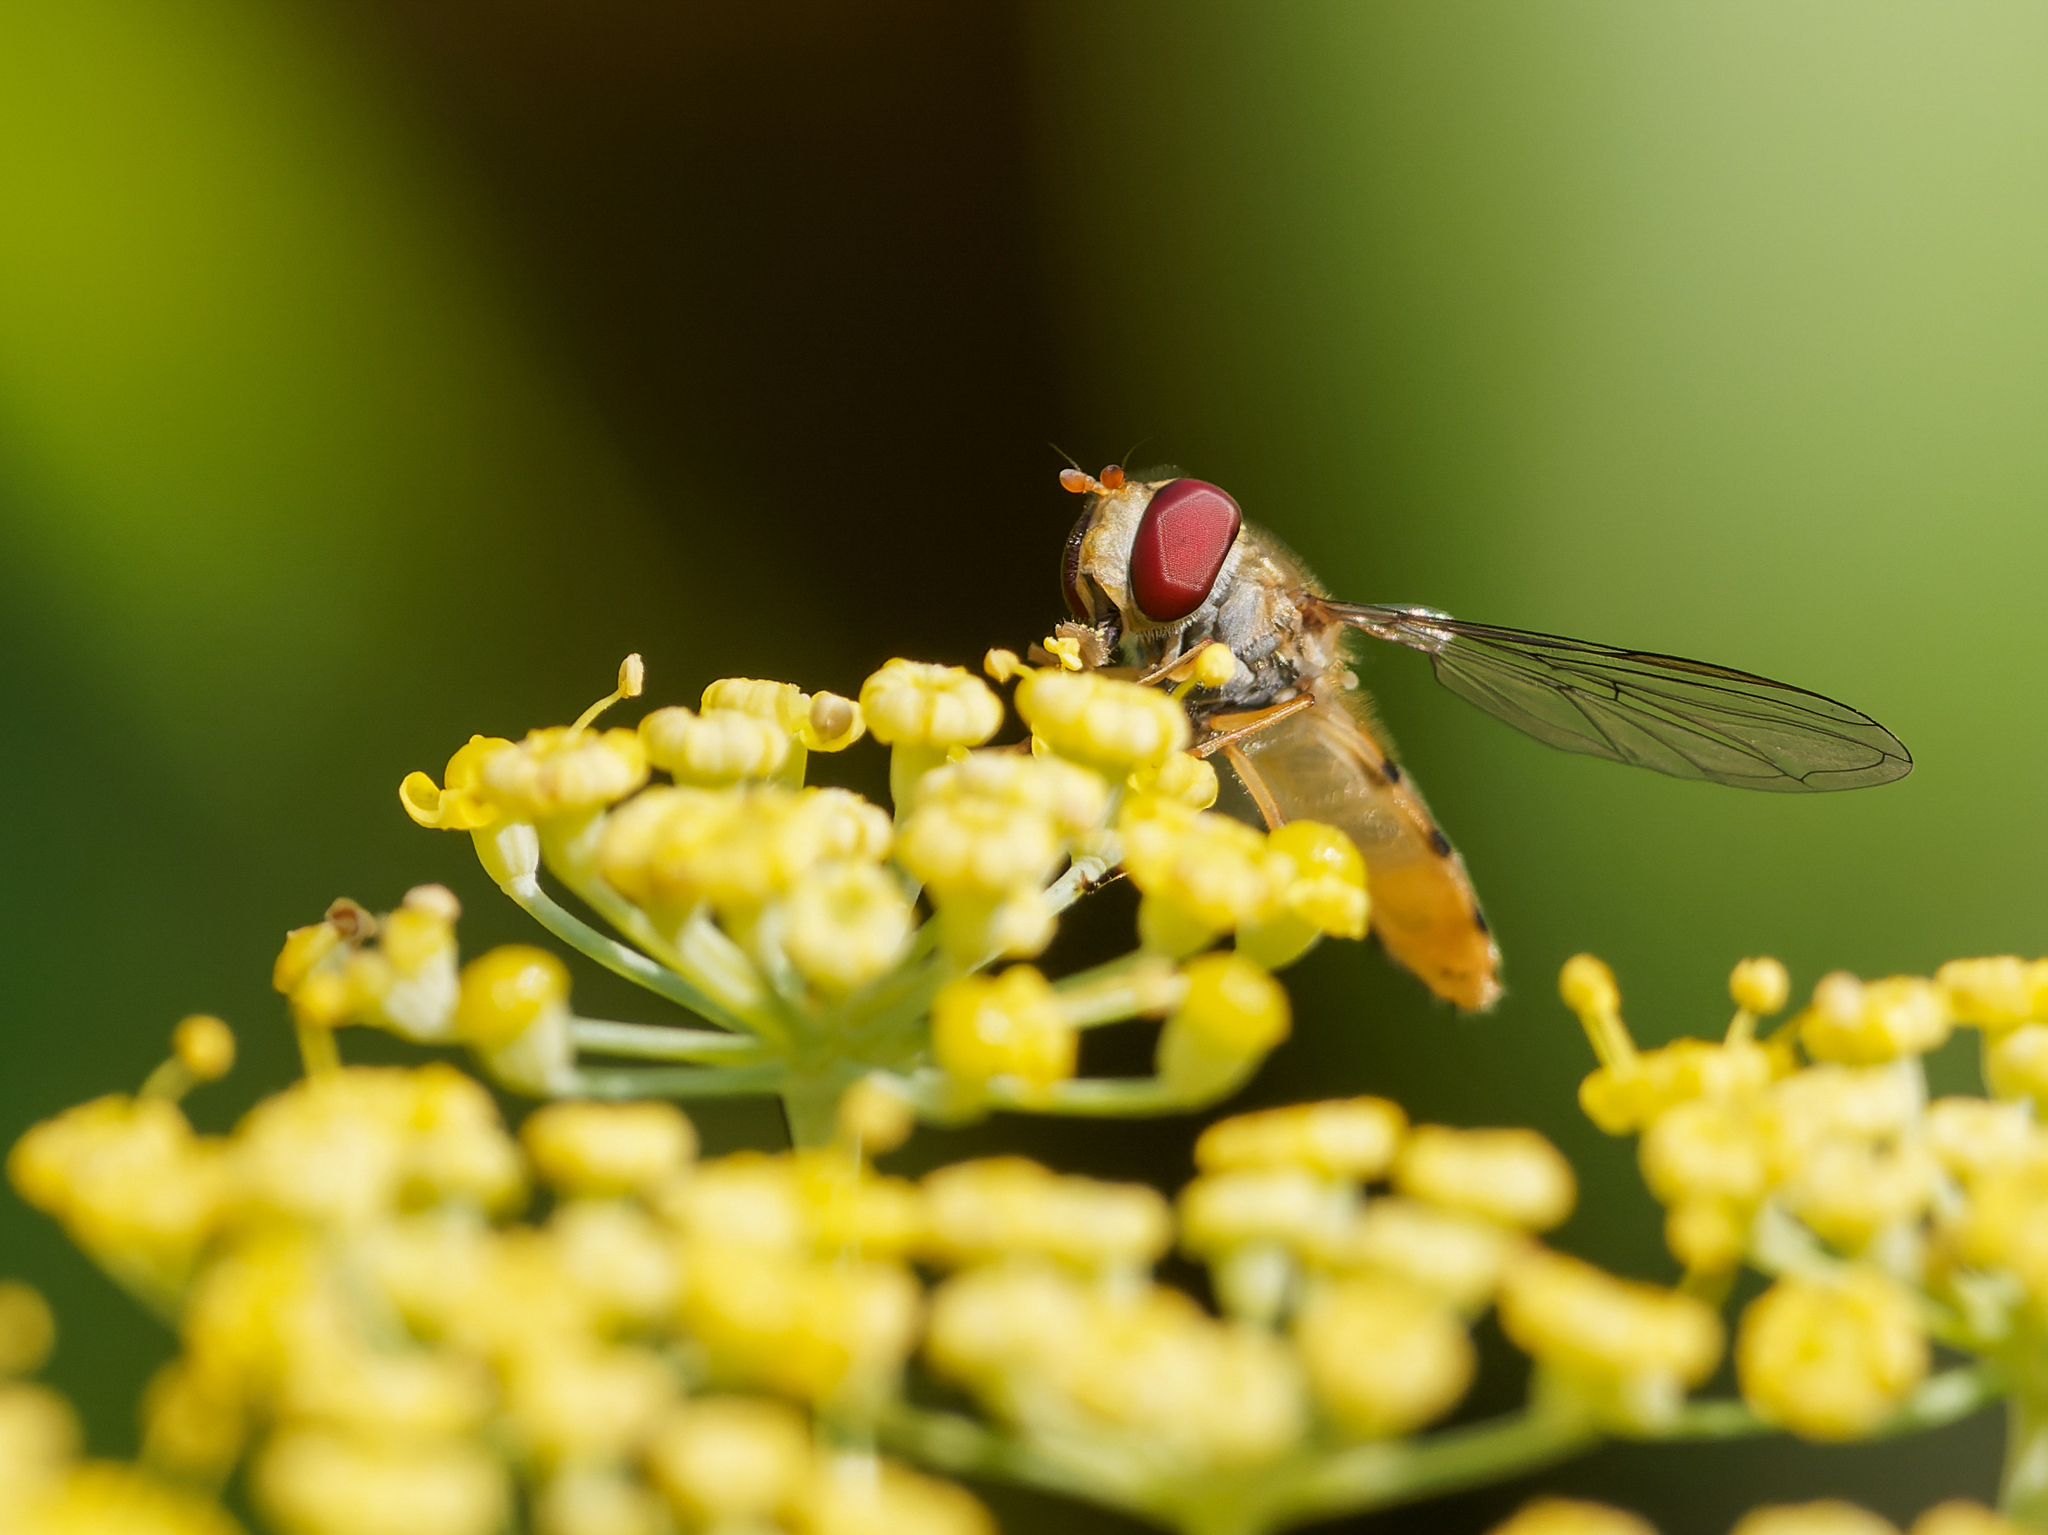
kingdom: Animalia
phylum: Arthropoda
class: Insecta
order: Diptera
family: Syrphidae
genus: Episyrphus
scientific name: Episyrphus balteatus
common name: Marmalade hoverfly
